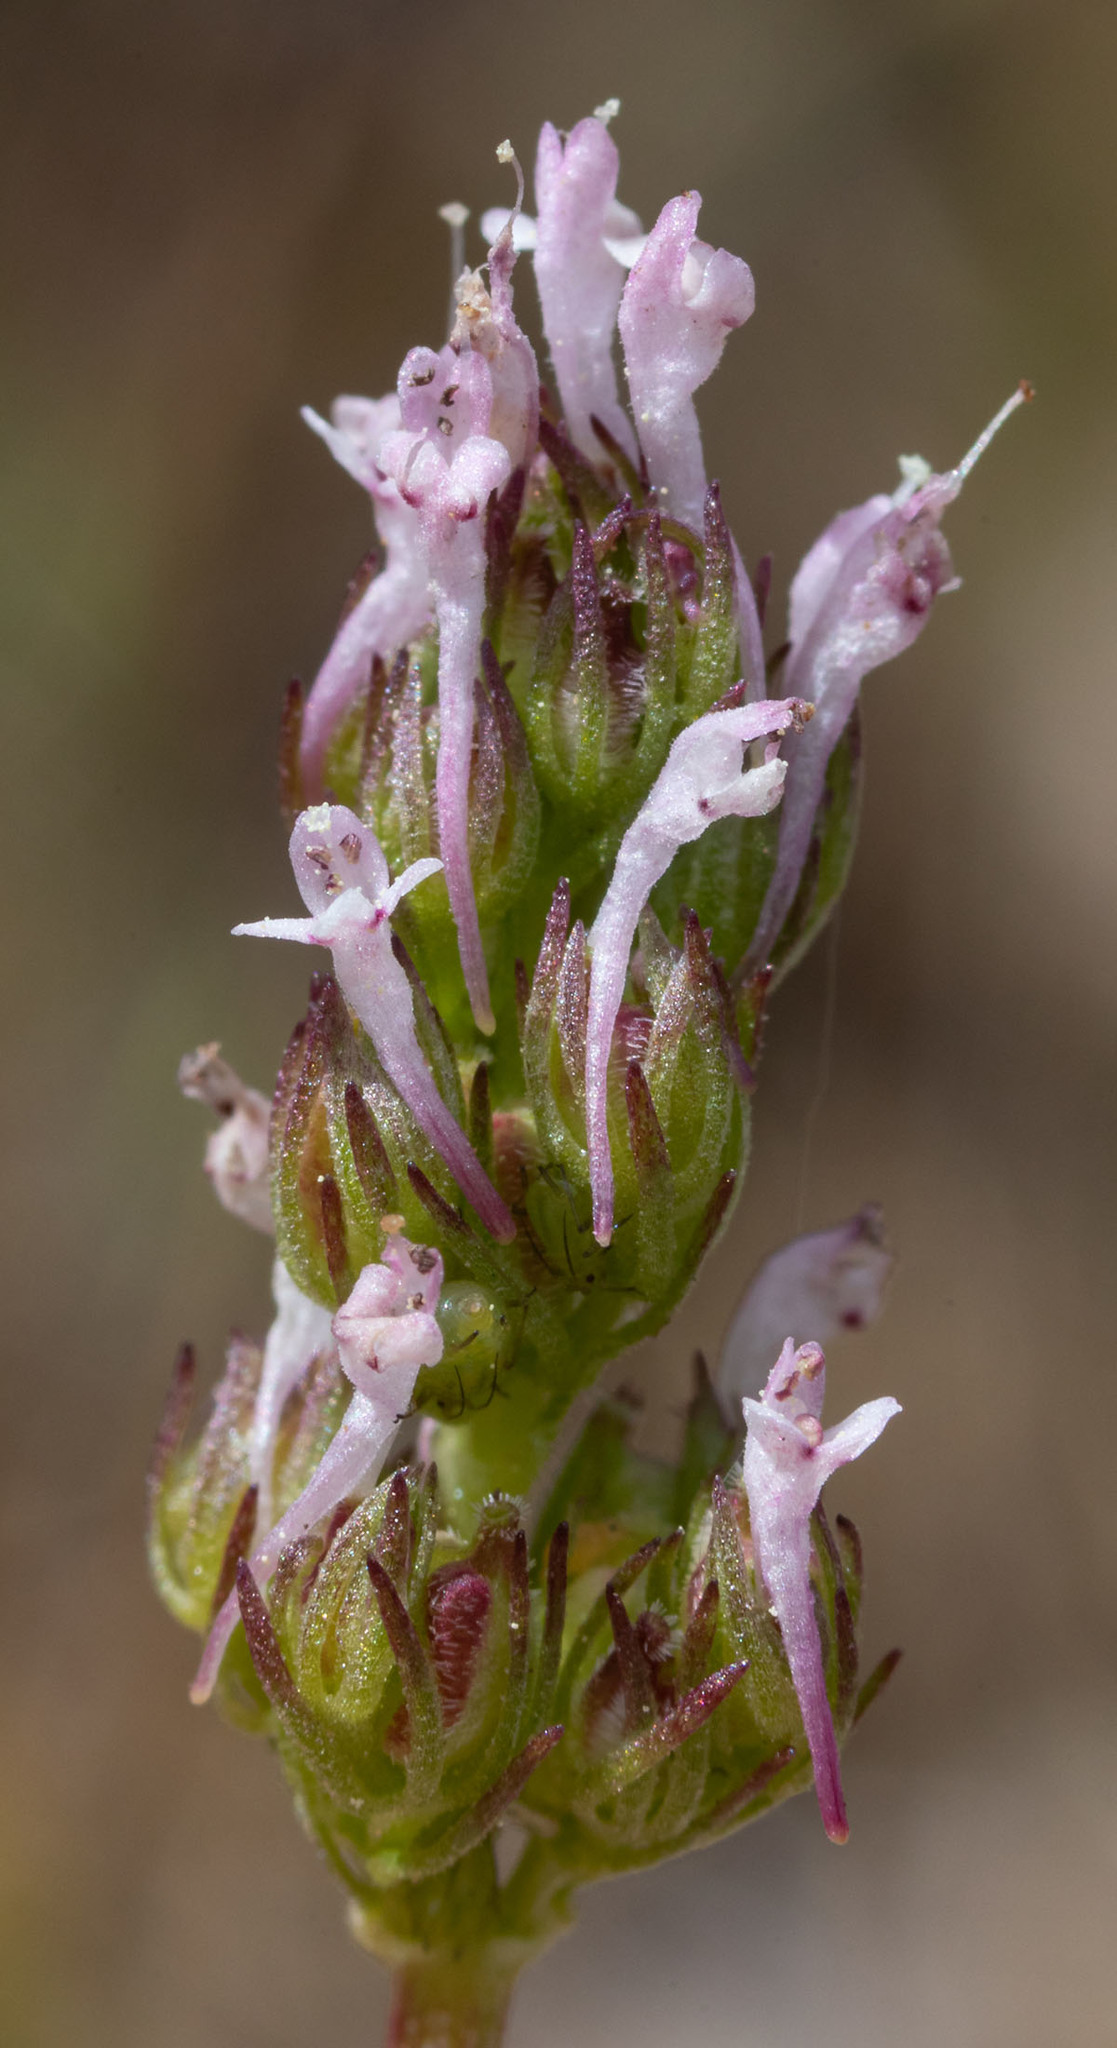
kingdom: Plantae
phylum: Tracheophyta
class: Magnoliopsida
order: Dipsacales
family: Caprifoliaceae
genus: Plectritis
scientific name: Plectritis ciliosa
